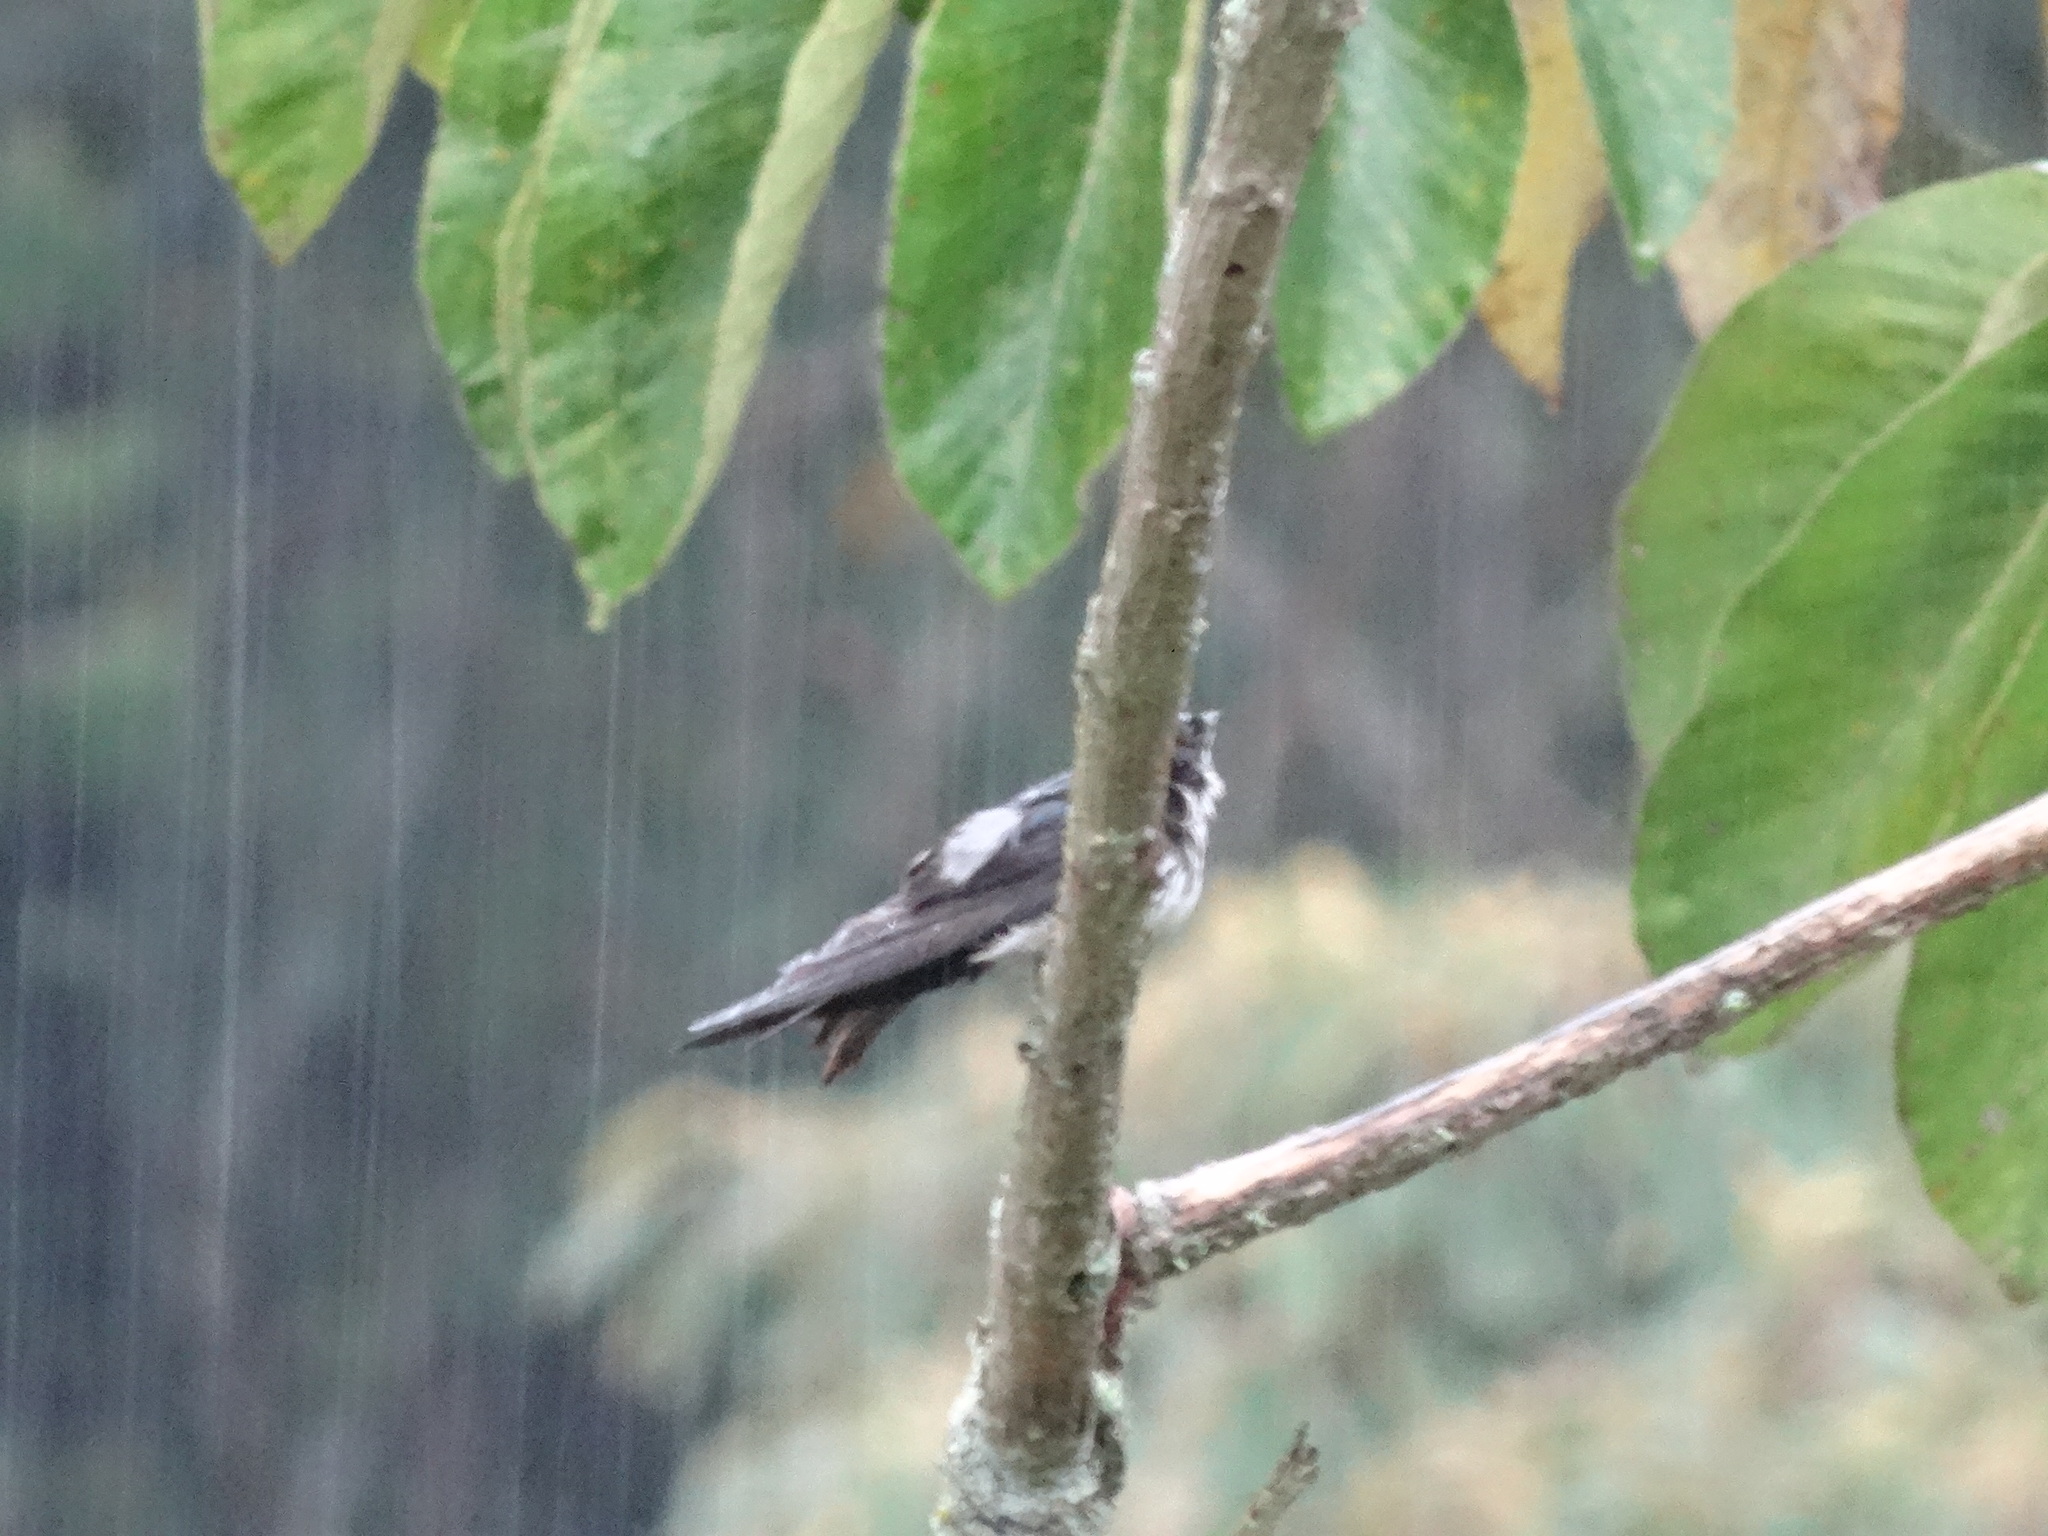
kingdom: Animalia
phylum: Chordata
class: Aves
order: Passeriformes
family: Hirundinidae
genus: Notiochelidon
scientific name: Notiochelidon cyanoleuca
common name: Blue-and-white swallow
